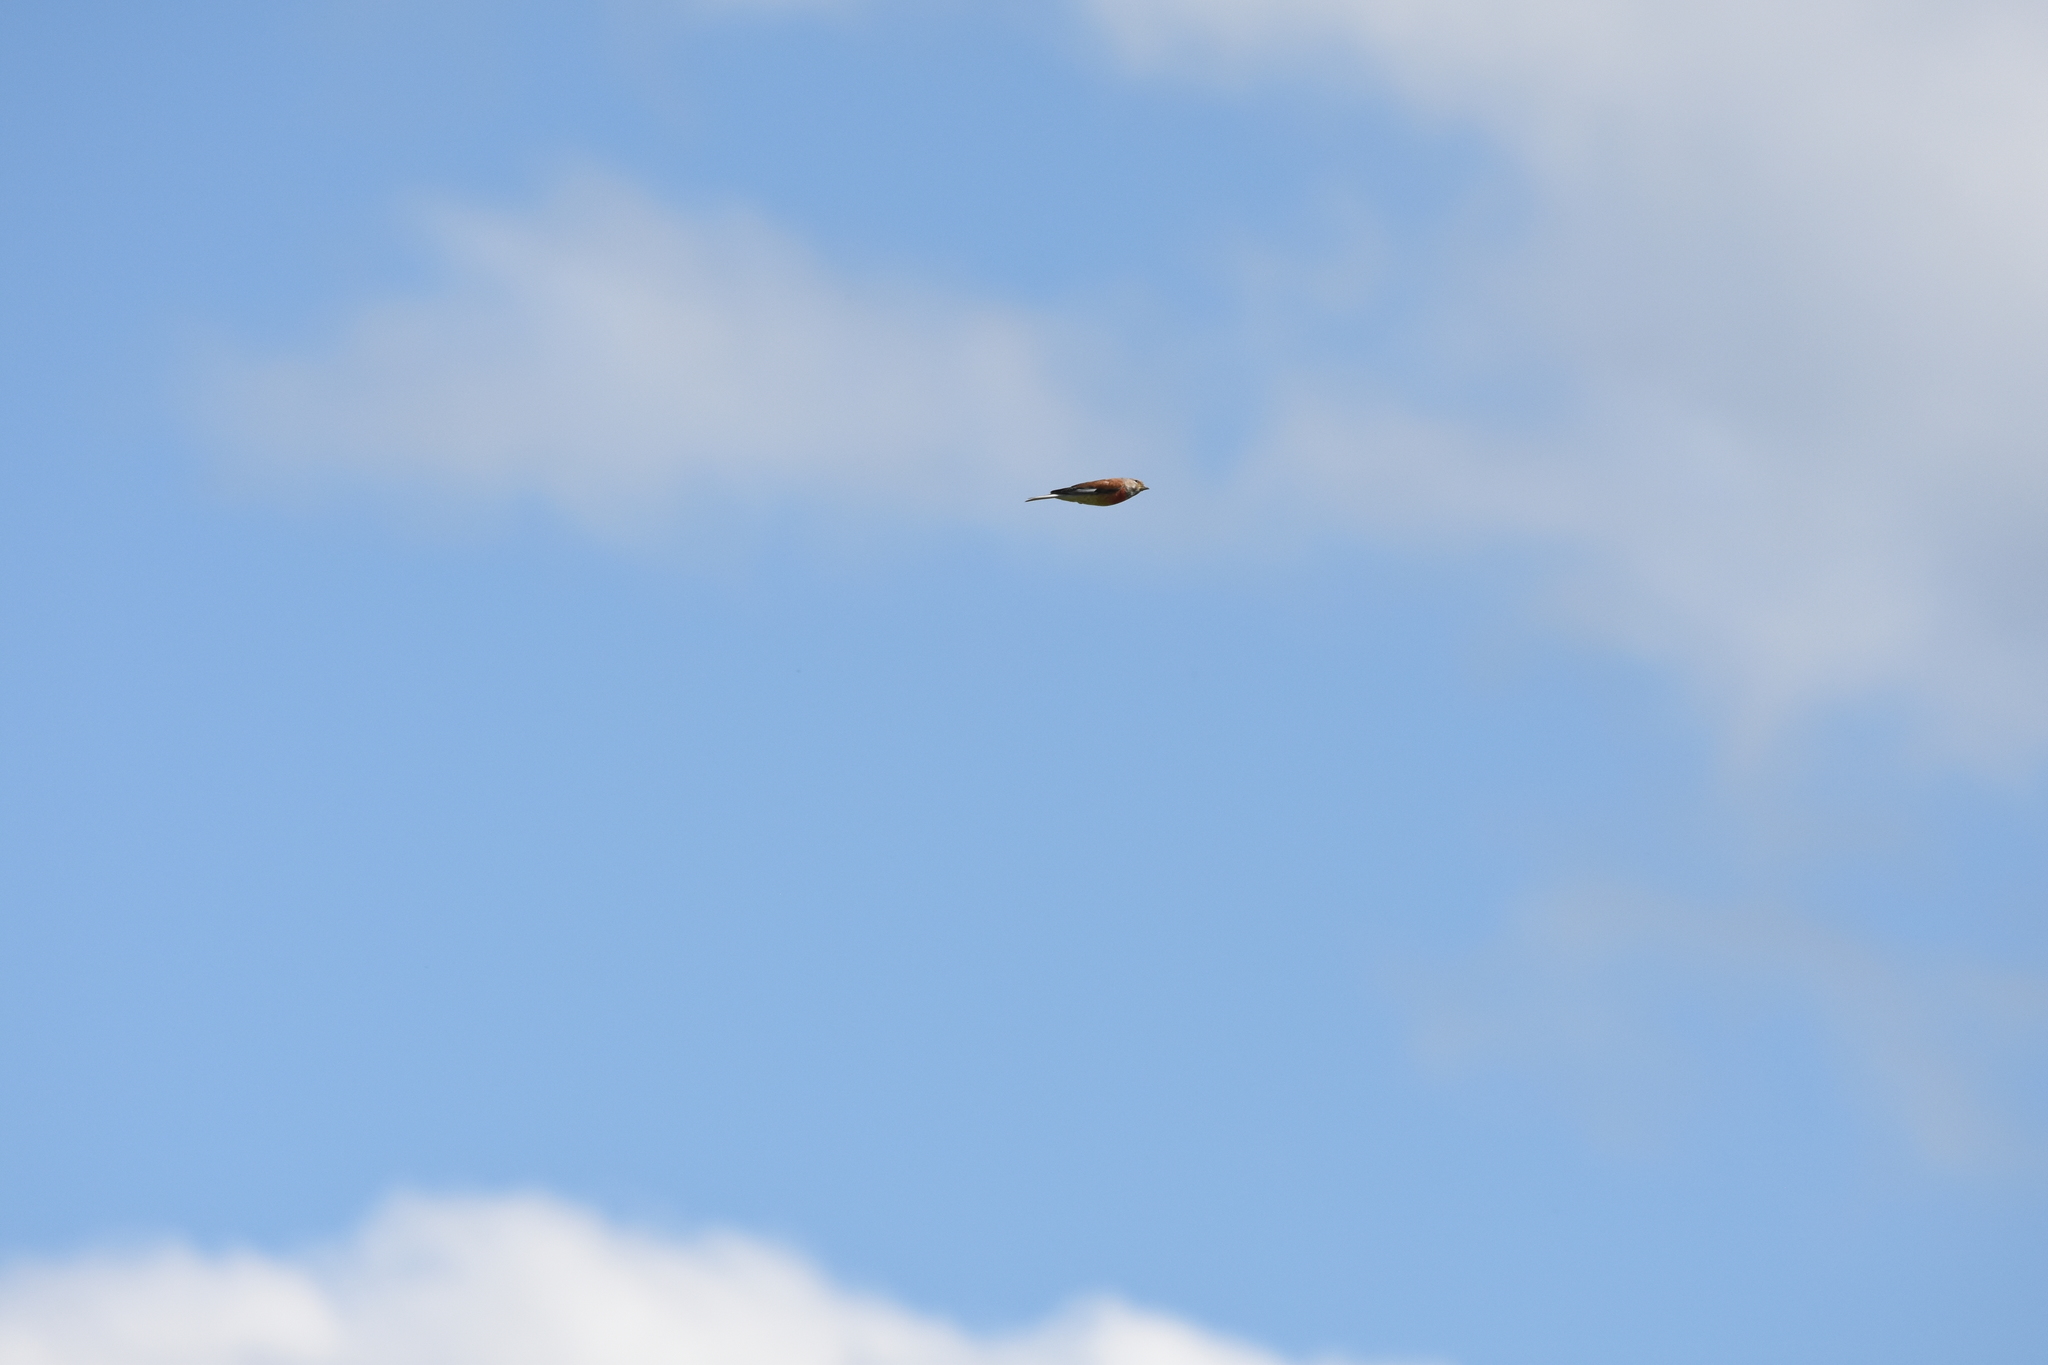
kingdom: Animalia
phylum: Chordata
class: Aves
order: Passeriformes
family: Fringillidae
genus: Linaria
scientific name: Linaria cannabina
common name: Common linnet
